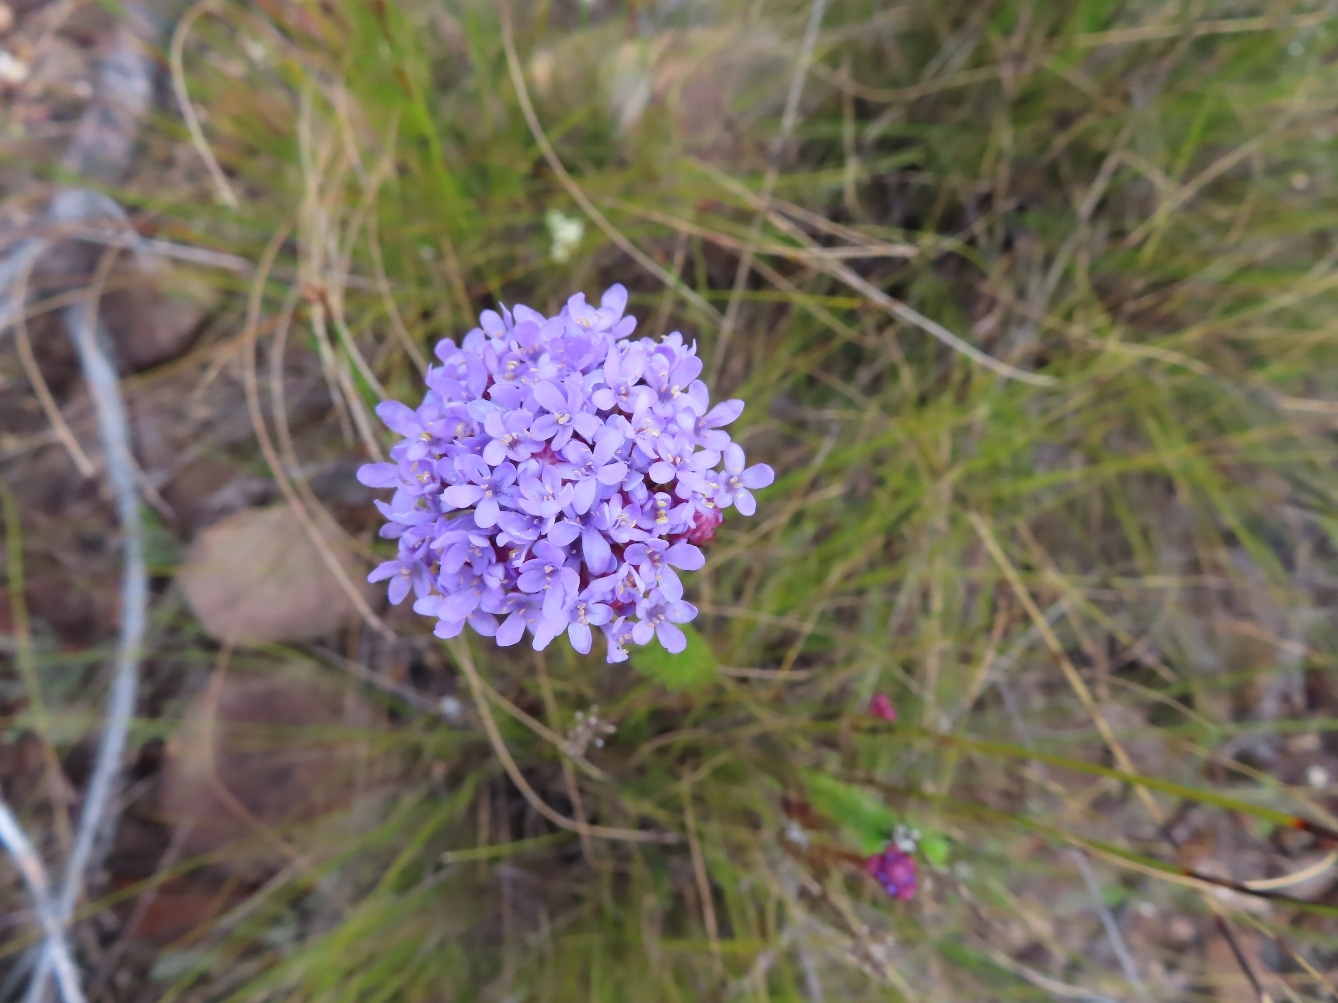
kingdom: Plantae
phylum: Tracheophyta
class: Magnoliopsida
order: Lamiales
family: Scrophulariaceae
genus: Pseudoselago
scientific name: Pseudoselago serrata
